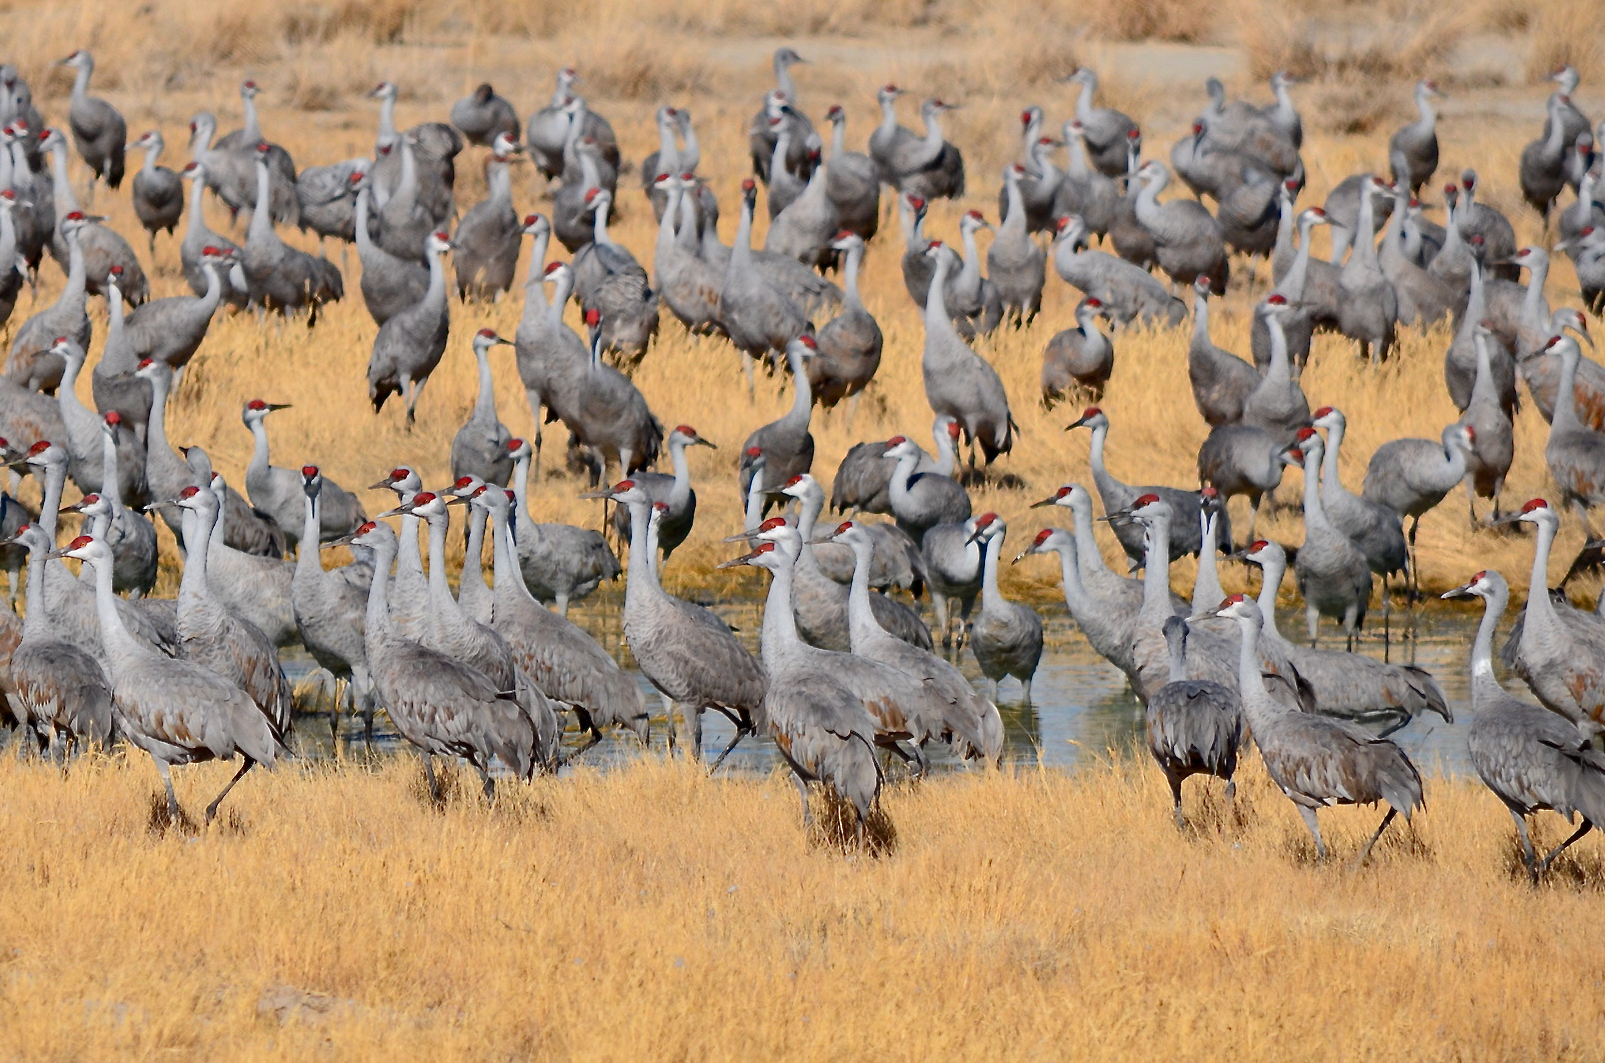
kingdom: Animalia
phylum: Chordata
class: Aves
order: Gruiformes
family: Gruidae
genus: Grus
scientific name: Grus canadensis
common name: Sandhill crane
